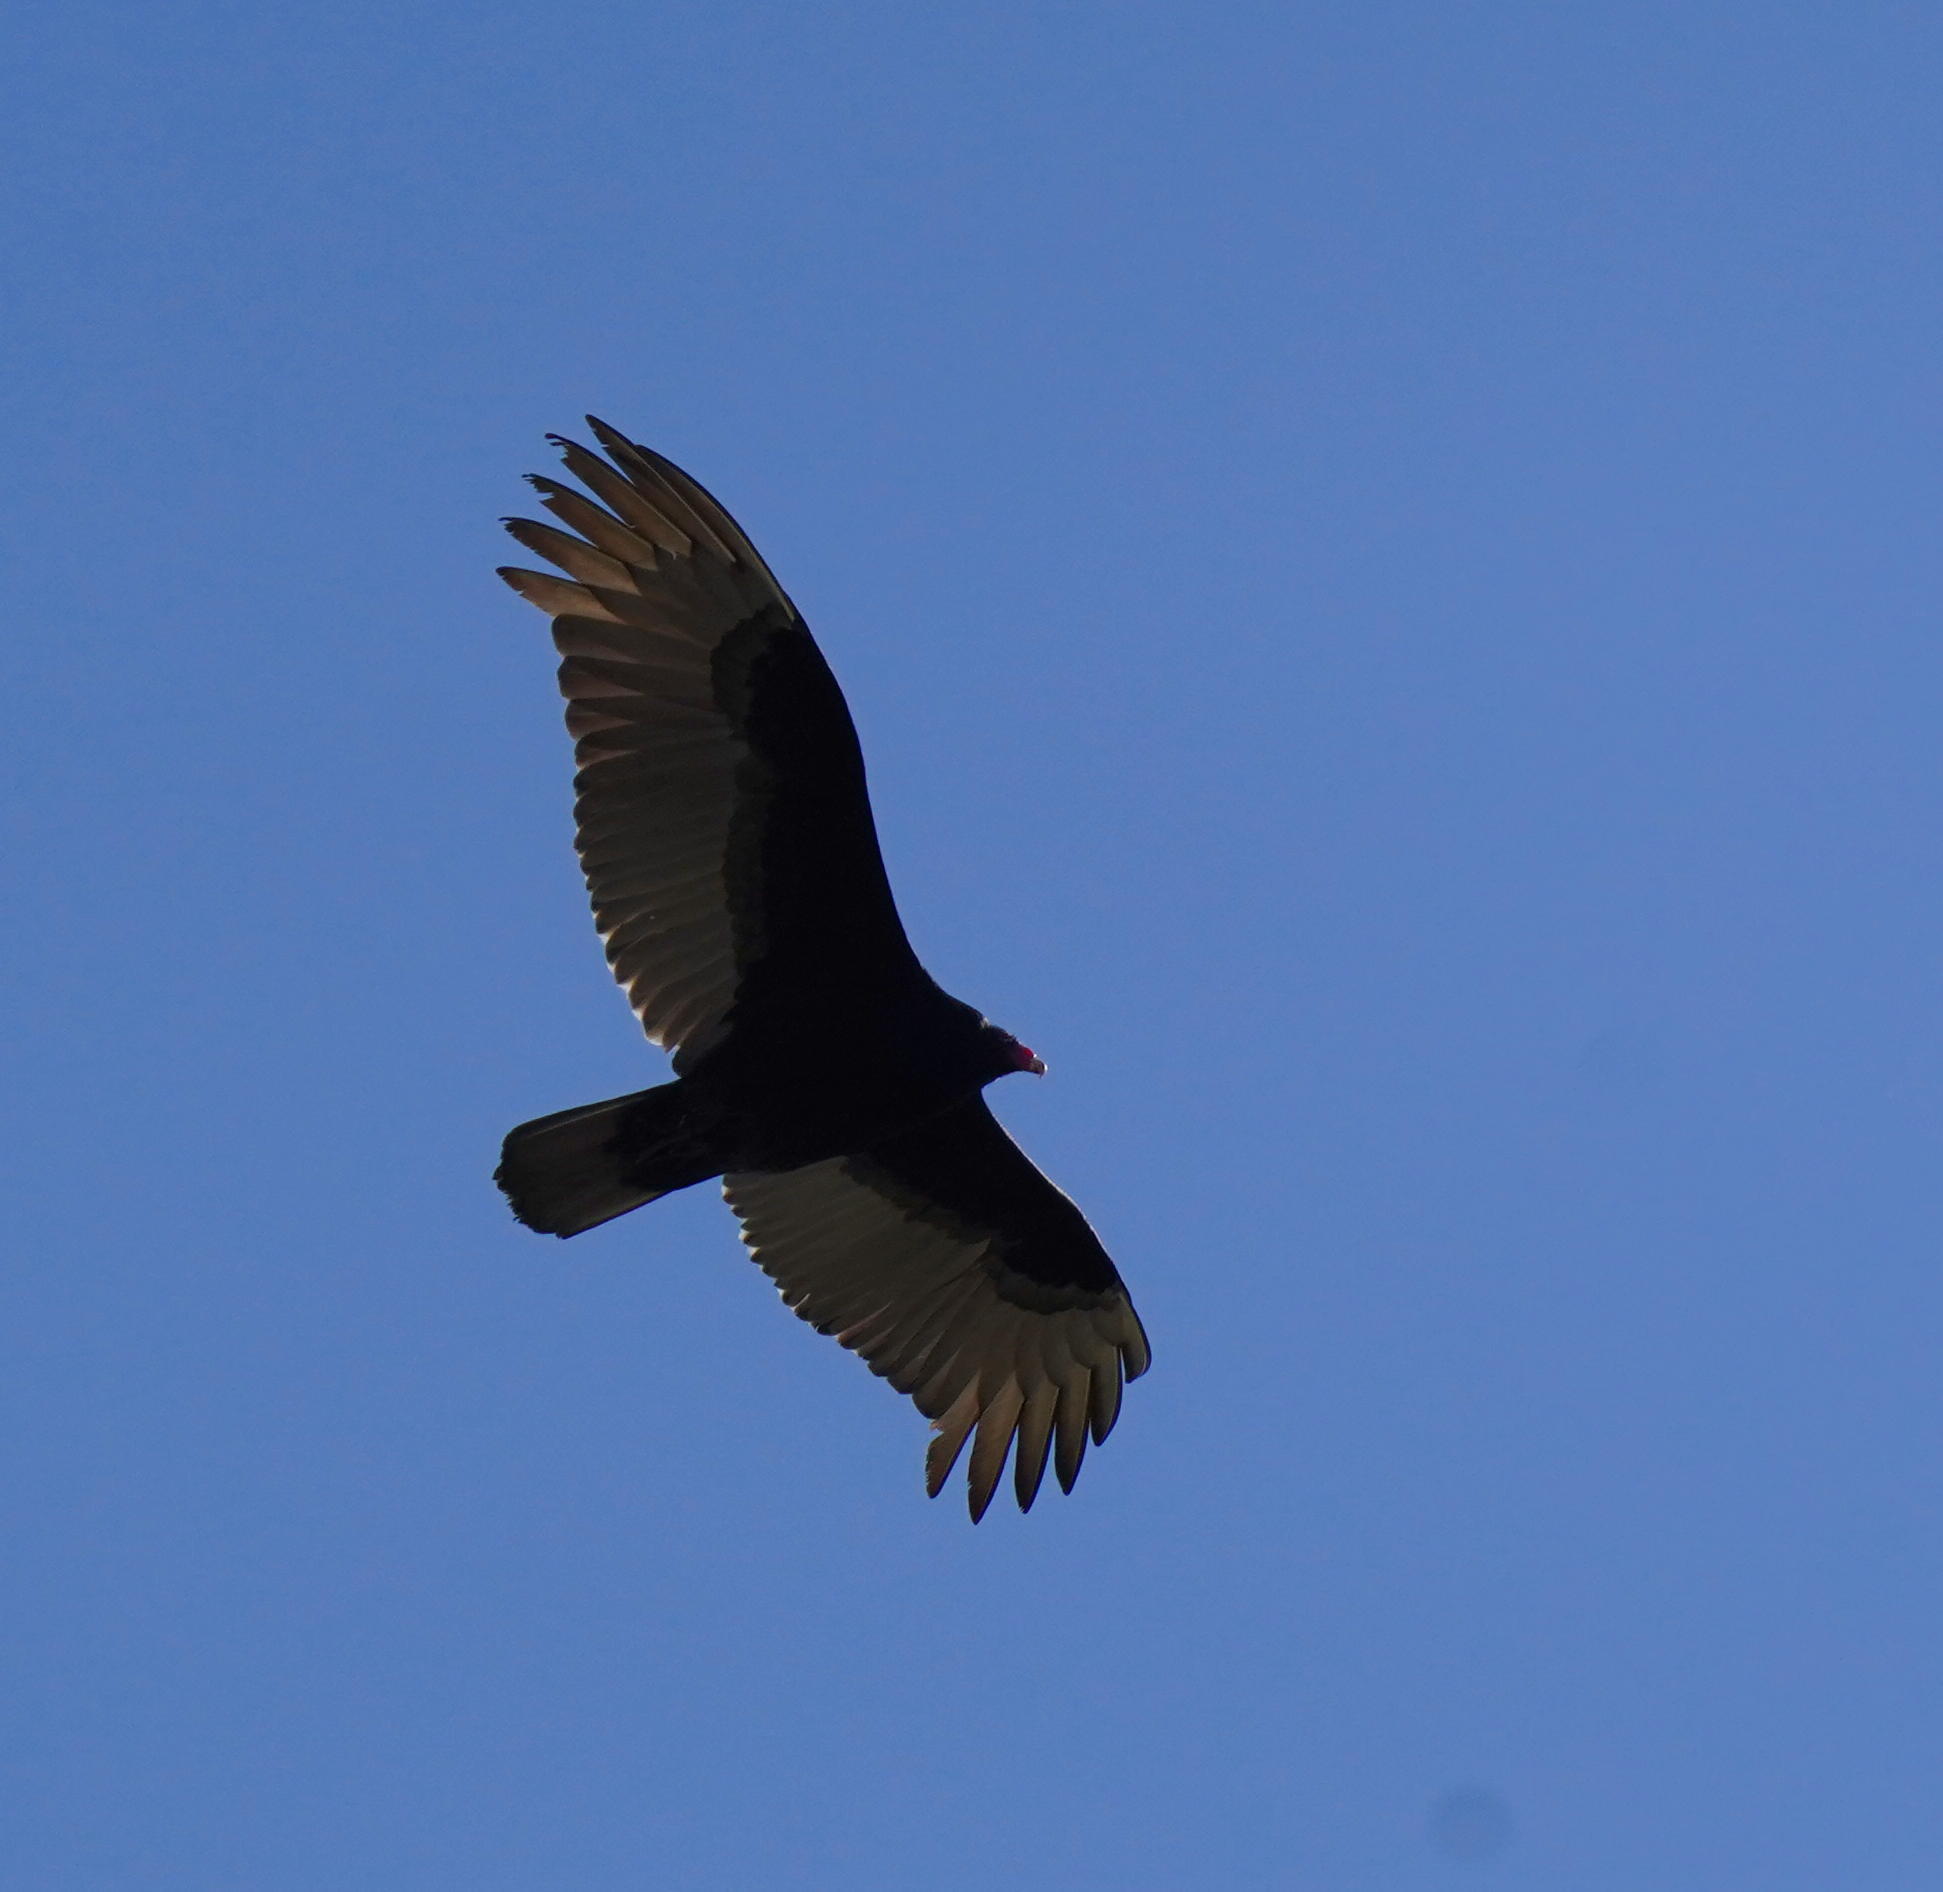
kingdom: Animalia
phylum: Chordata
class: Aves
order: Accipitriformes
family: Cathartidae
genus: Cathartes
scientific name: Cathartes aura
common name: Turkey vulture
